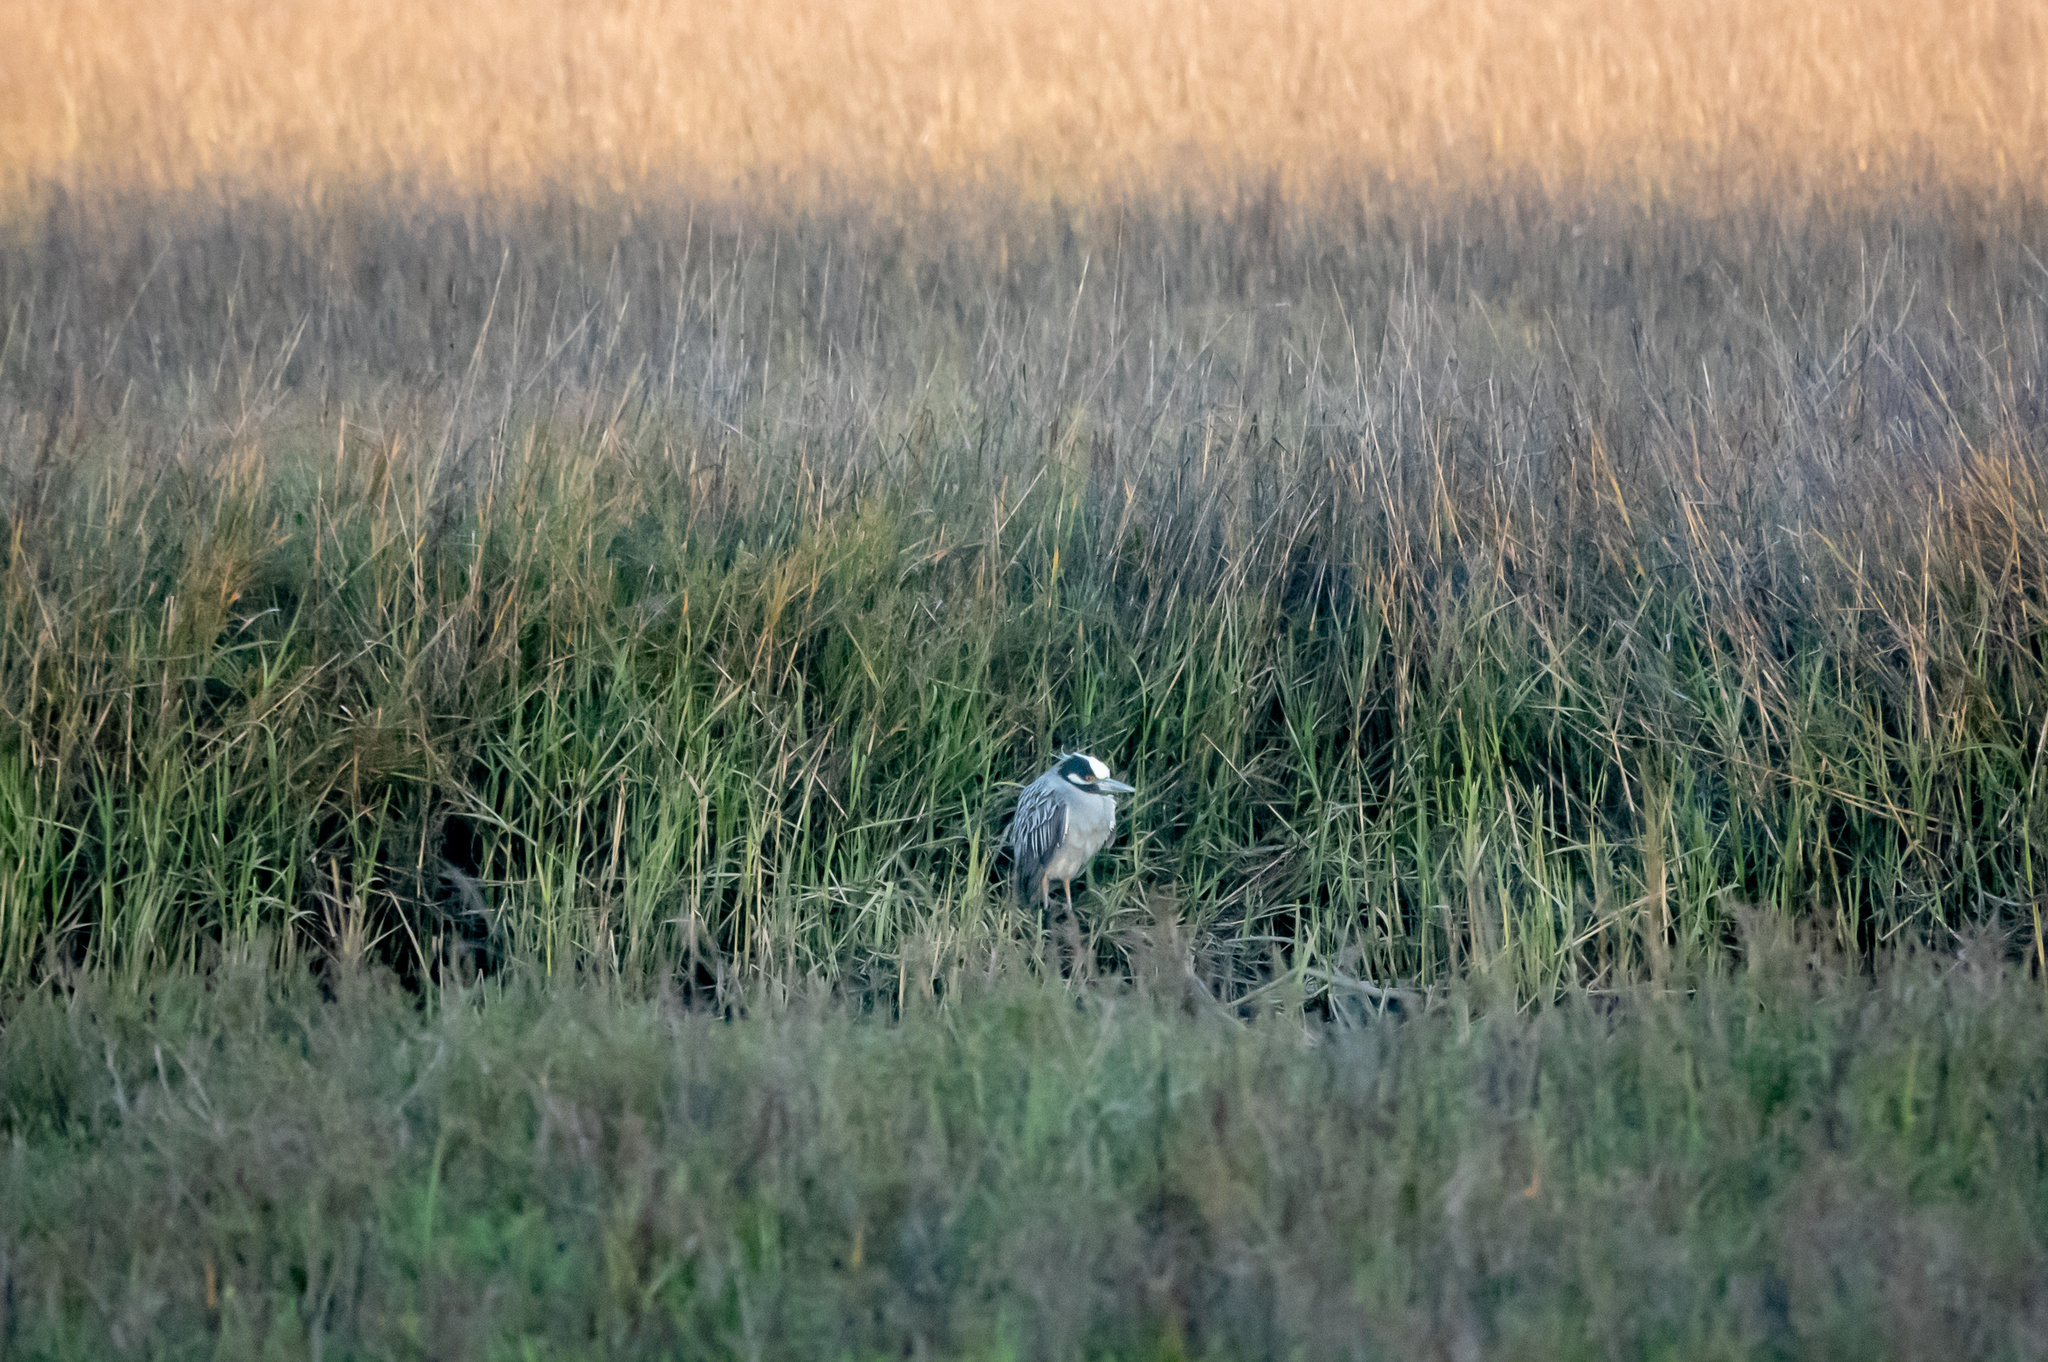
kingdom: Animalia
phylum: Chordata
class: Aves
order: Pelecaniformes
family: Ardeidae
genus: Nyctanassa
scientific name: Nyctanassa violacea
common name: Yellow-crowned night heron
